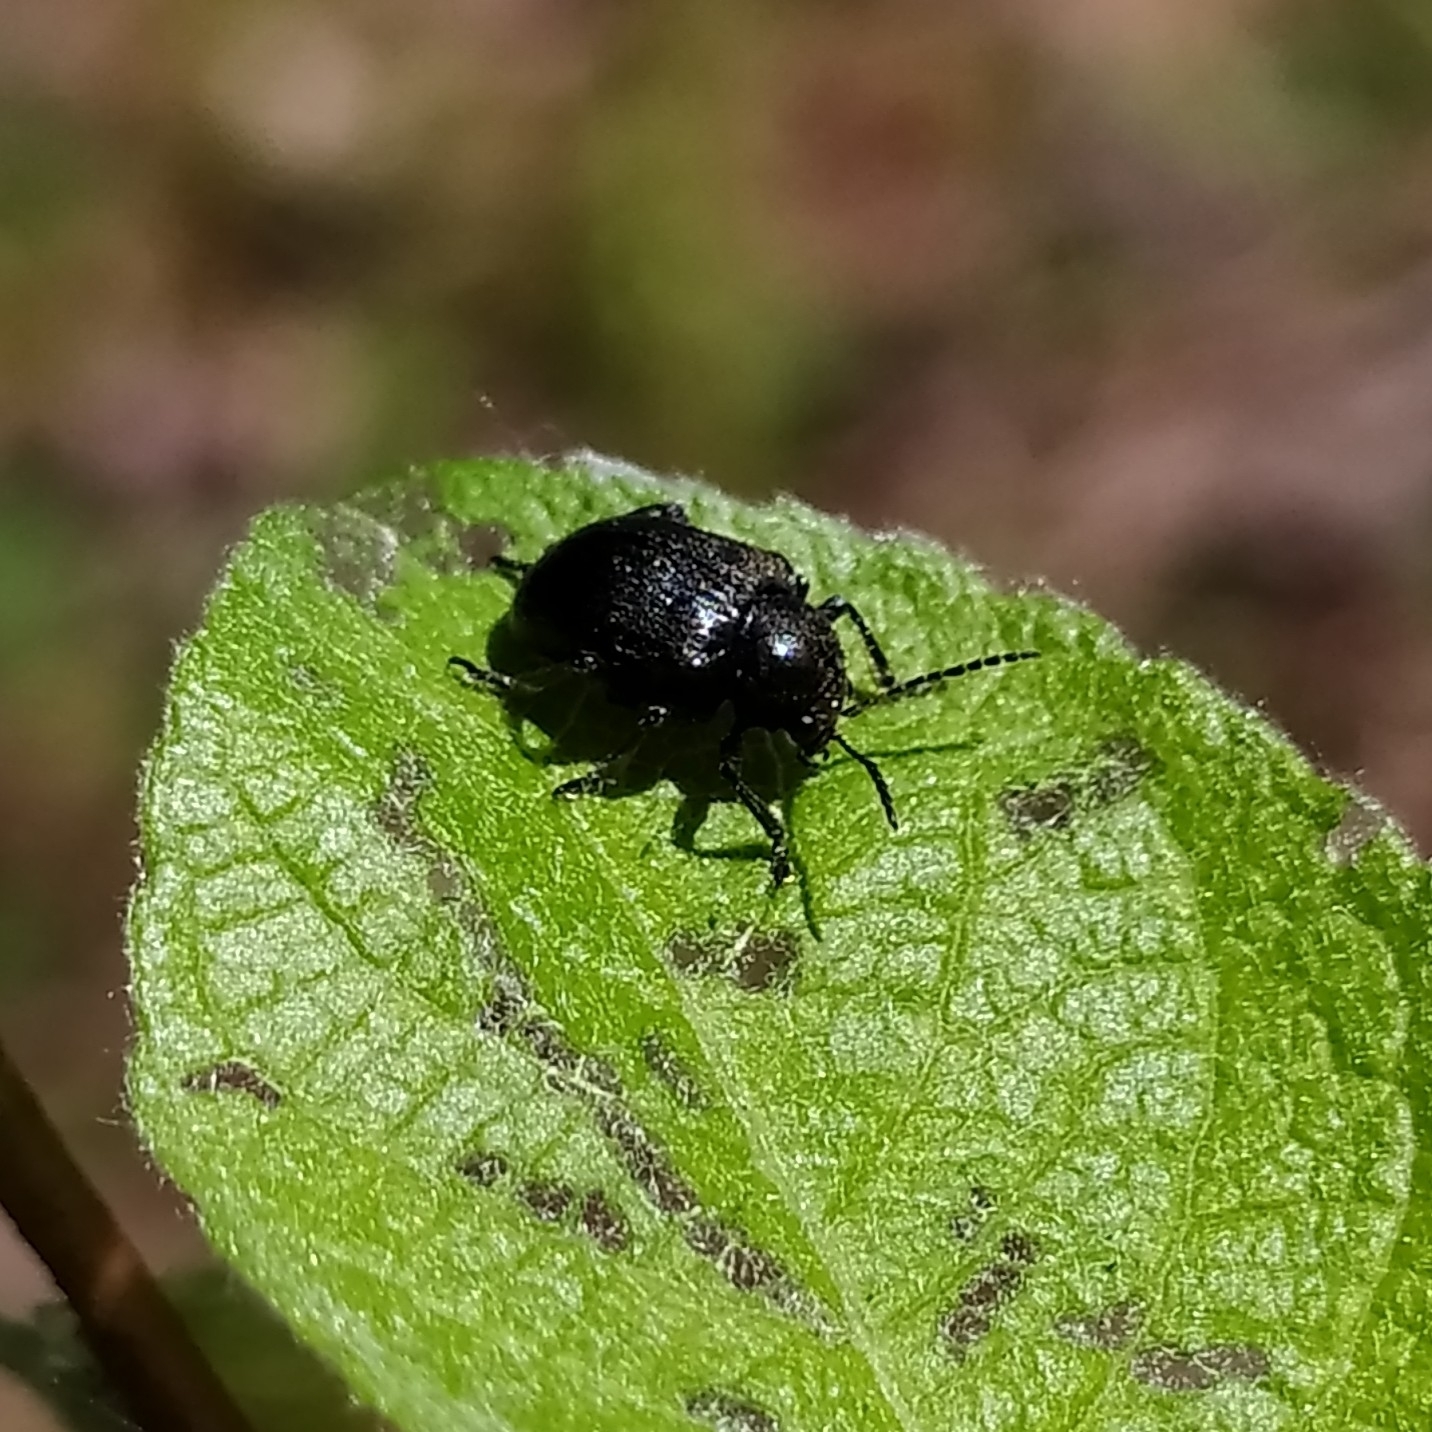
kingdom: Animalia
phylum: Arthropoda
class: Insecta
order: Coleoptera
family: Chrysomelidae
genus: Bromius
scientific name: Bromius obscurus
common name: Western grape rootworm
